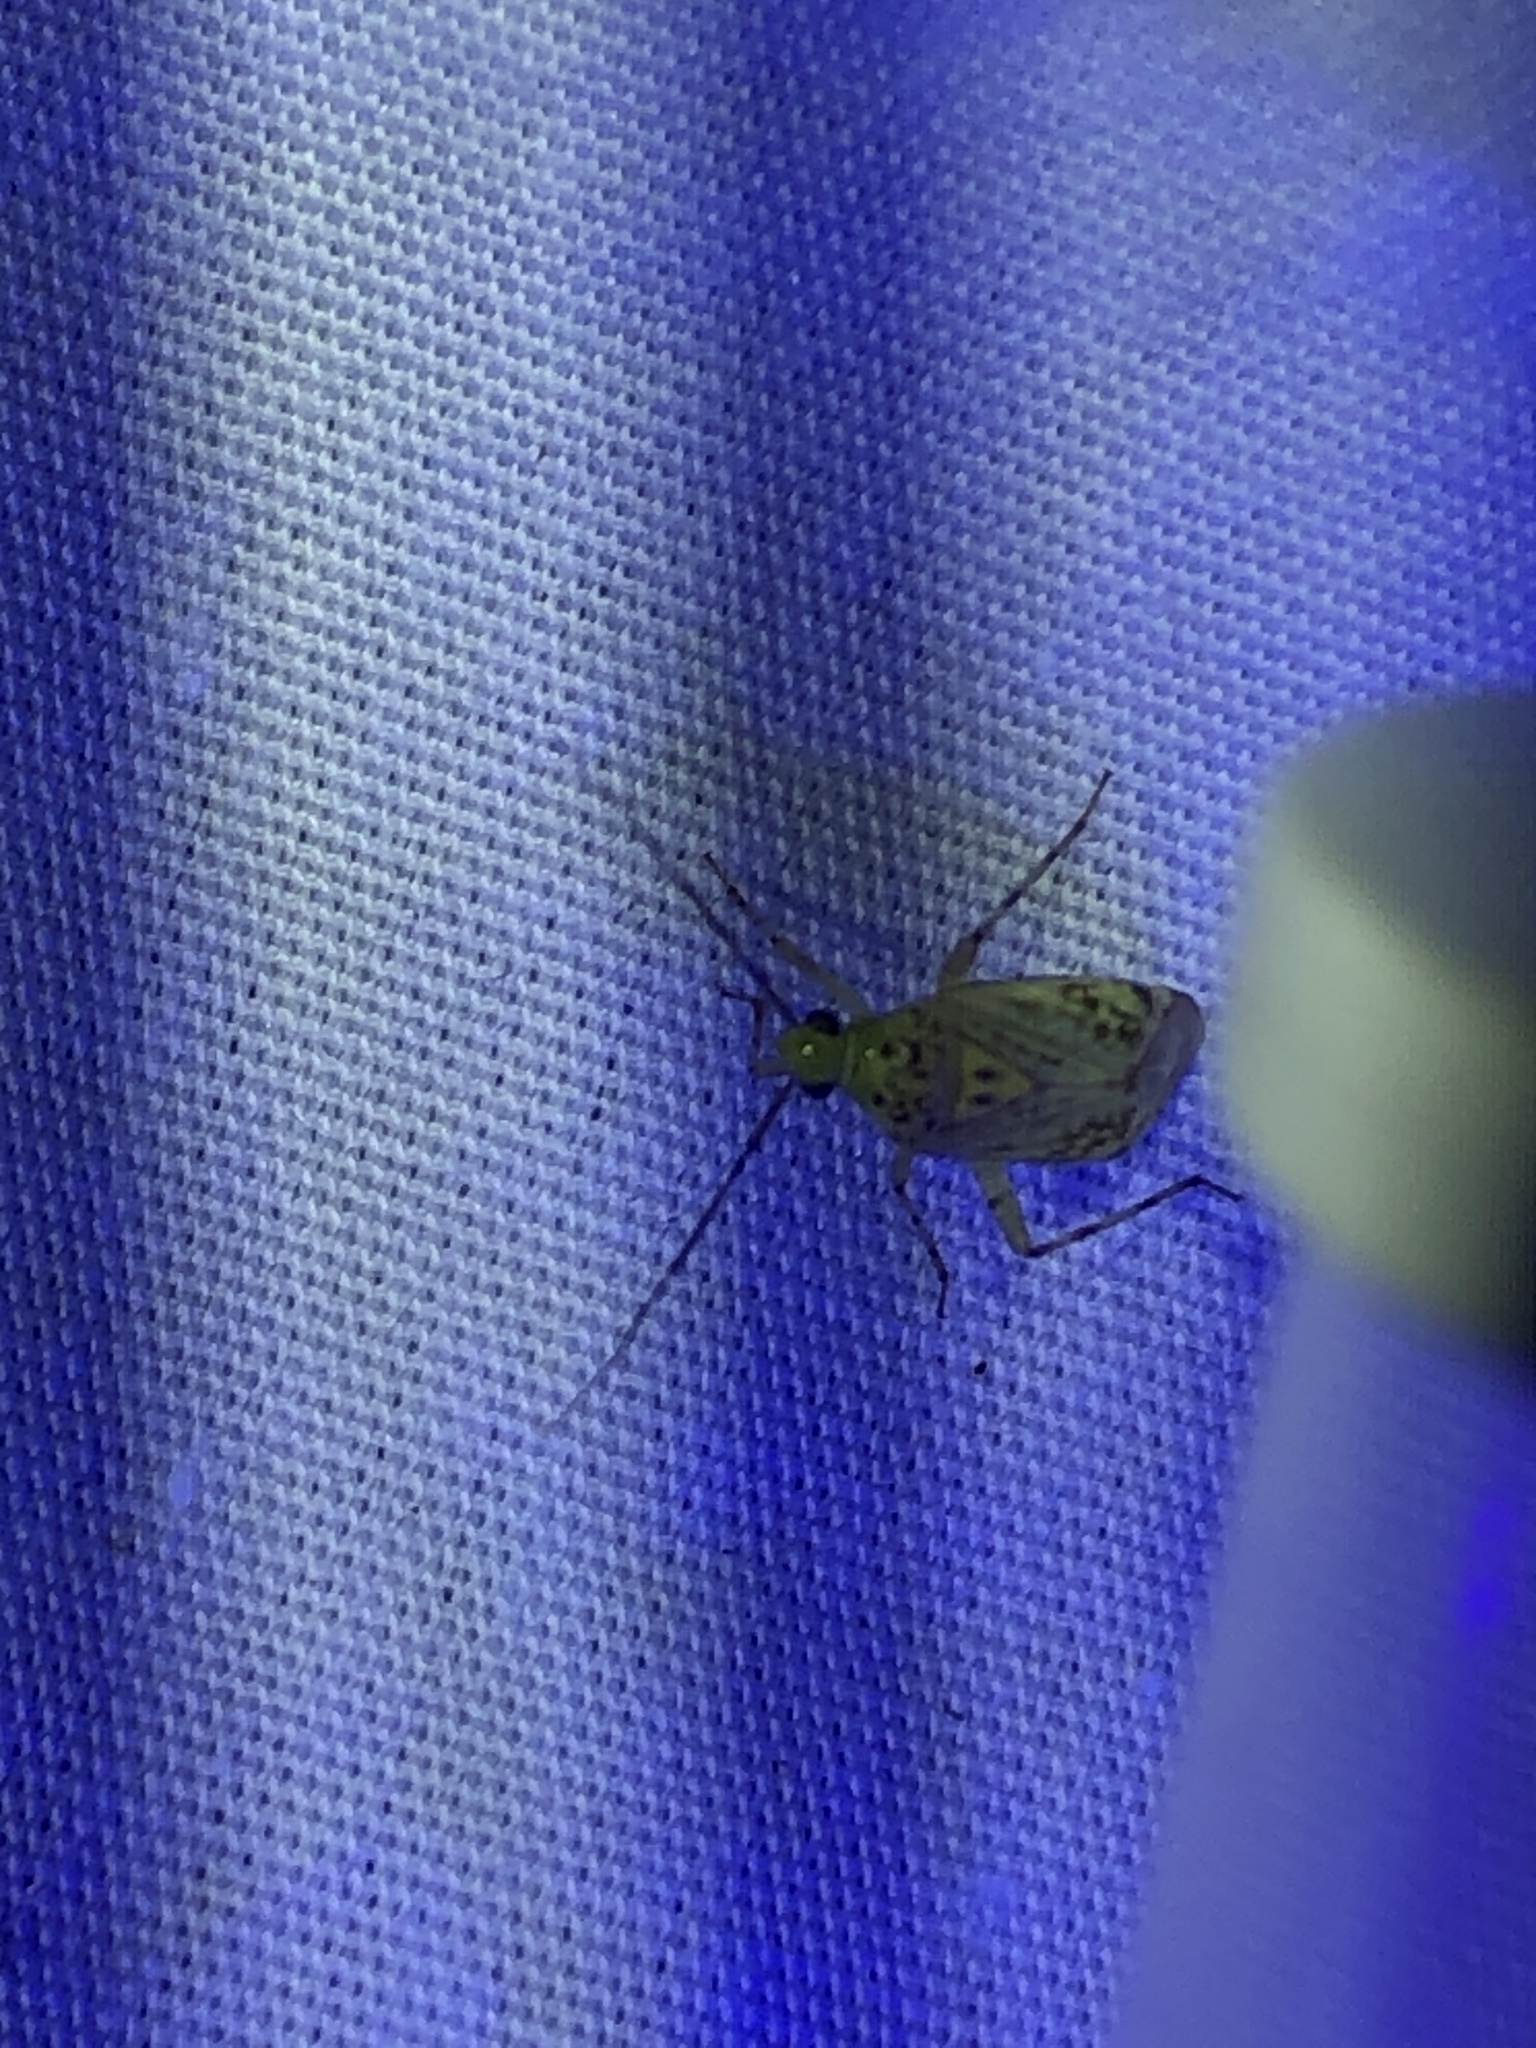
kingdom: Animalia
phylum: Arthropoda
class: Insecta
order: Hemiptera
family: Miridae
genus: Taedia
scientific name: Taedia marmorata
